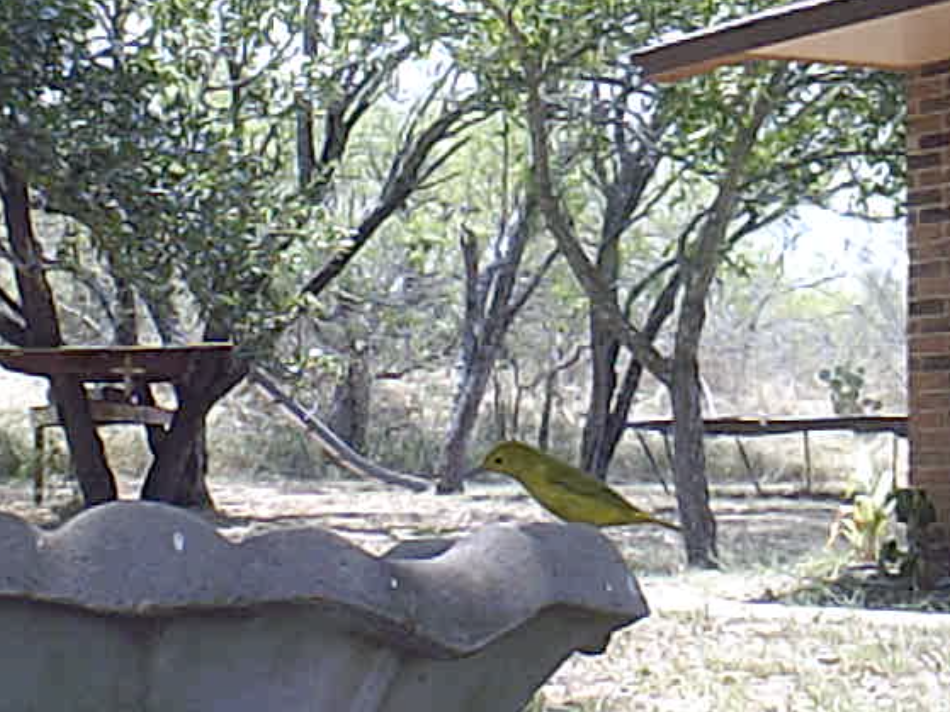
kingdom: Animalia
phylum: Chordata
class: Aves
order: Passeriformes
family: Parulidae
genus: Setophaga
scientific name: Setophaga petechia
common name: Yellow warbler
